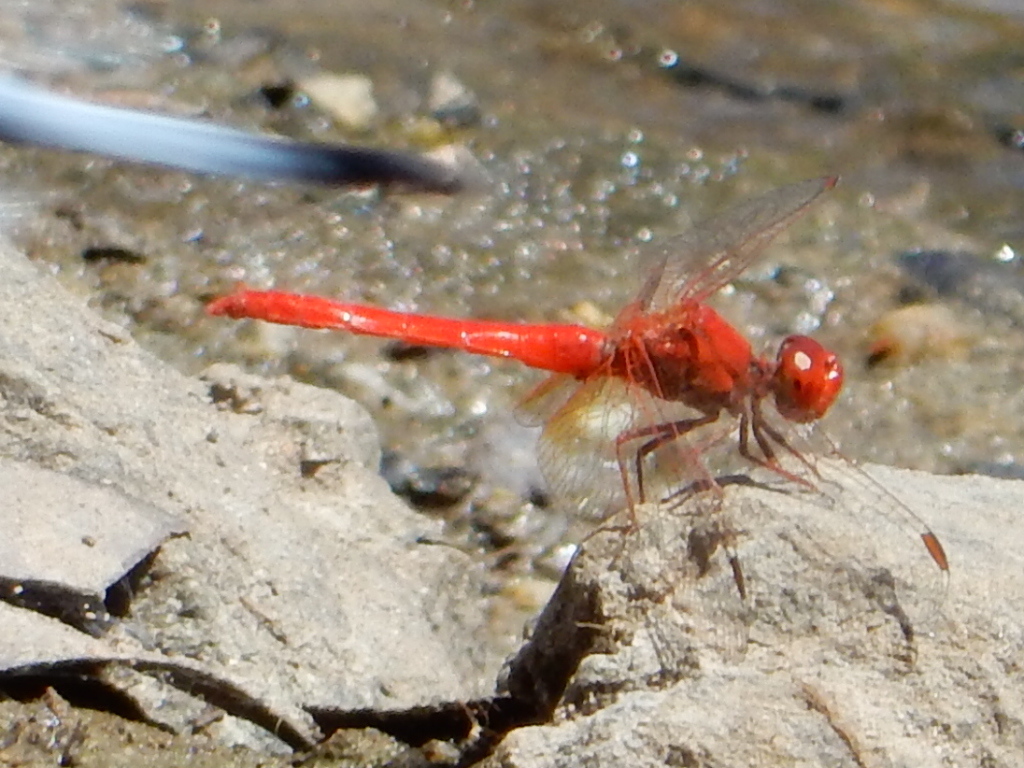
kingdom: Animalia
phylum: Arthropoda
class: Insecta
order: Odonata
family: Libellulidae
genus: Diplacodes
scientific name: Diplacodes haematodes
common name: Scarlet percher
